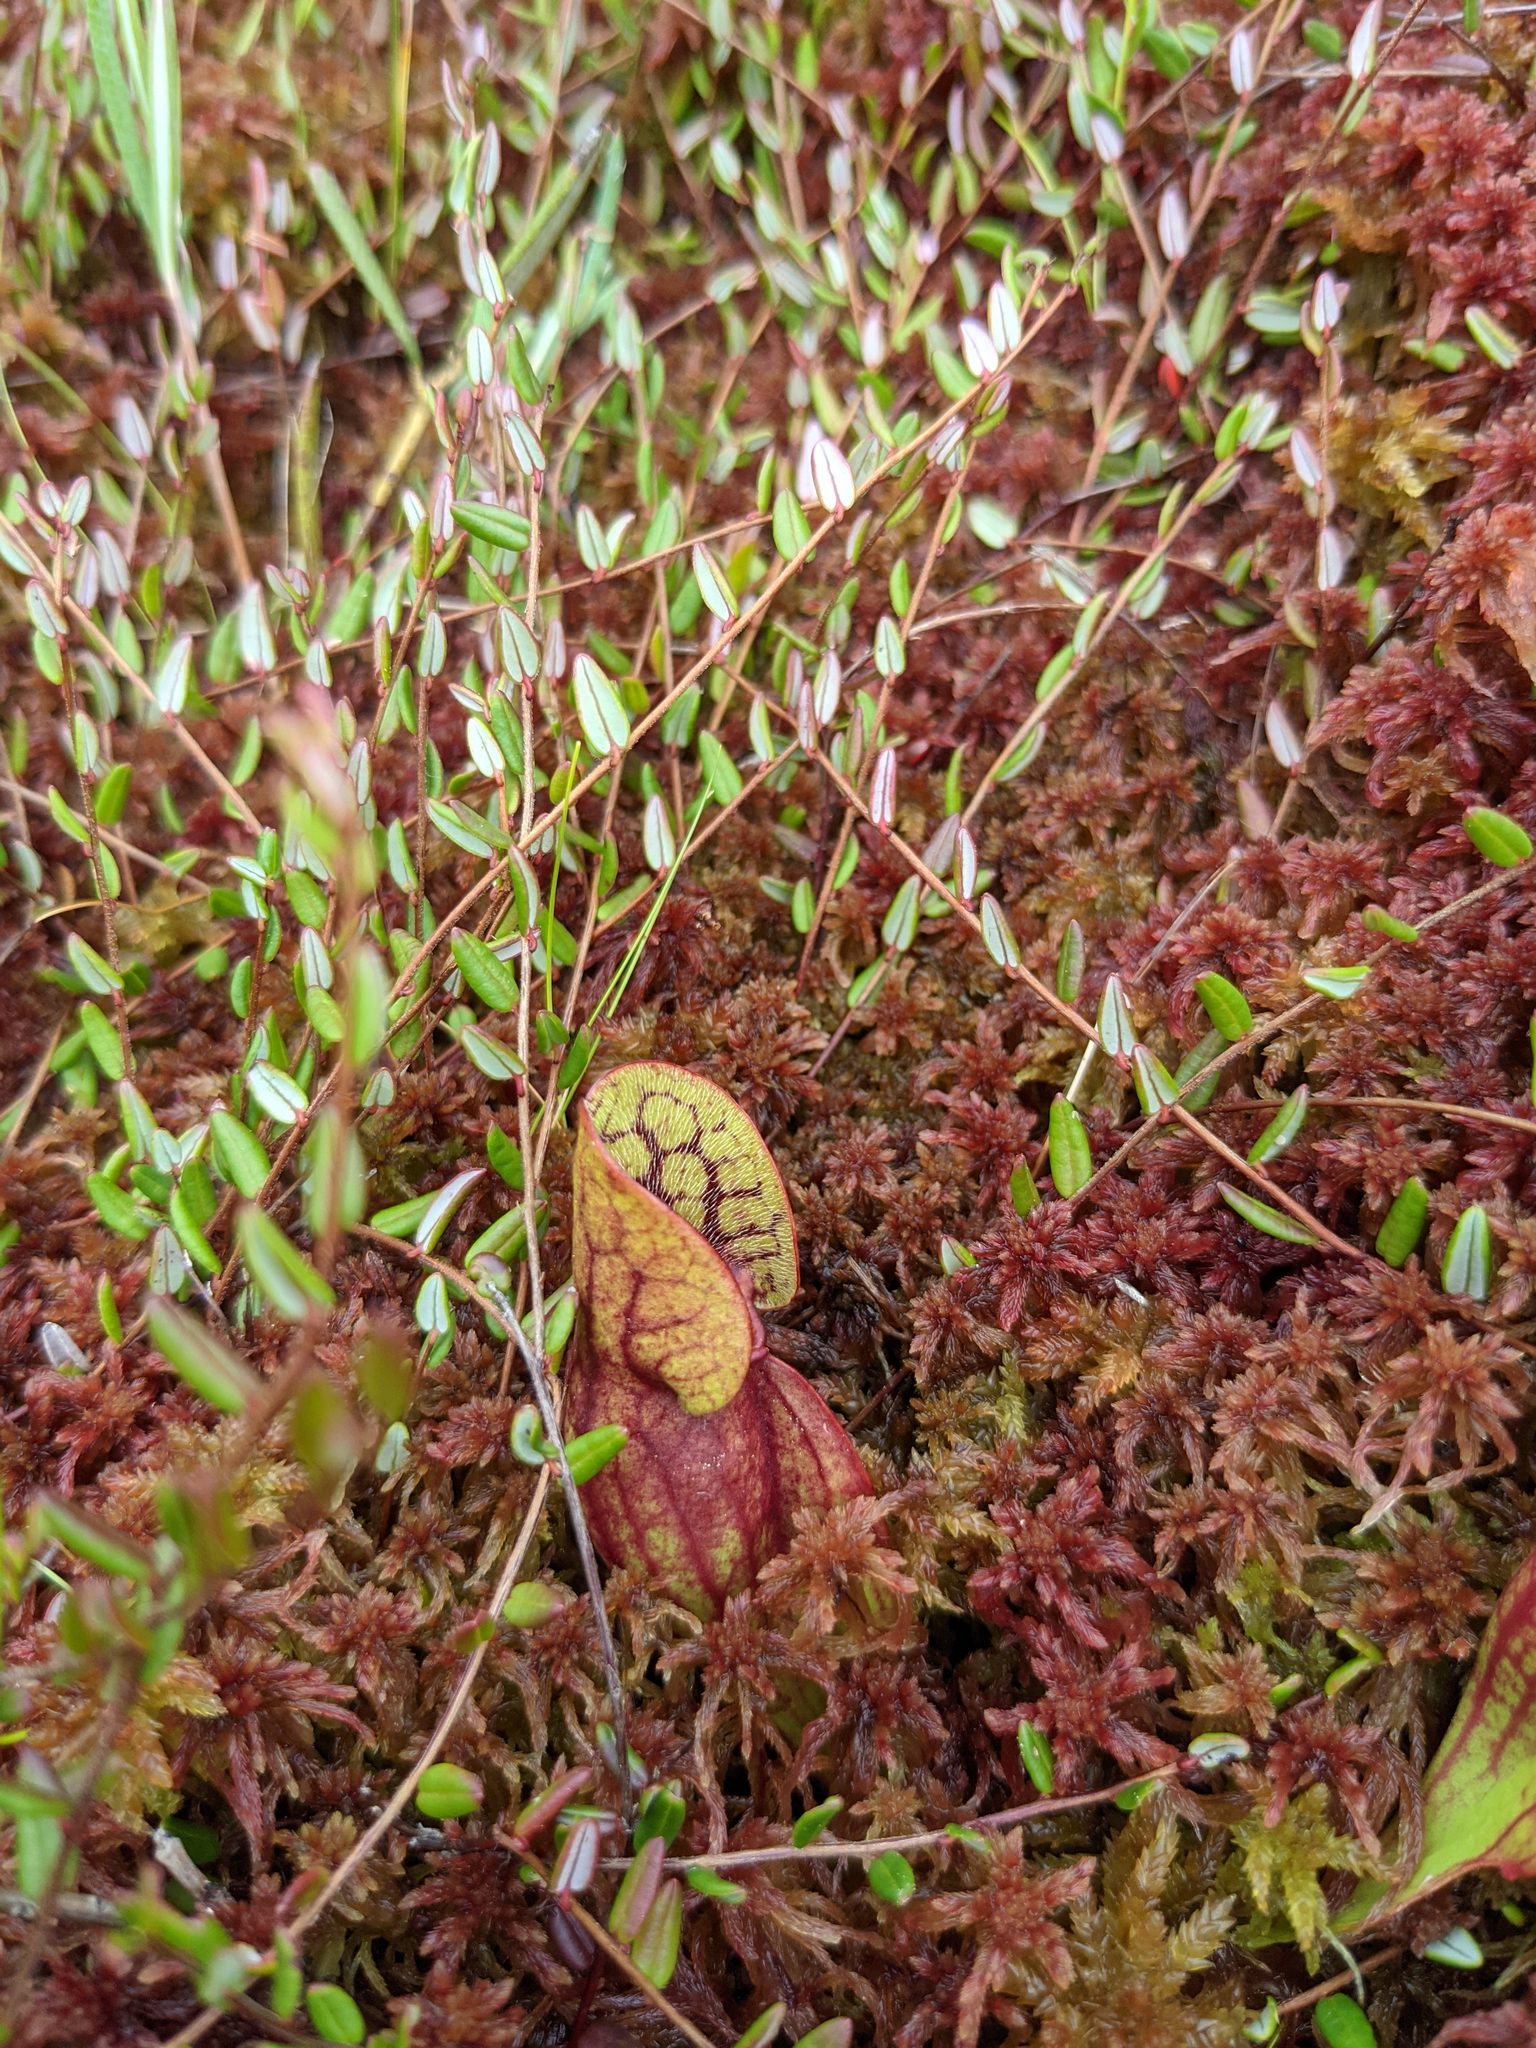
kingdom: Plantae
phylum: Tracheophyta
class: Magnoliopsida
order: Ericales
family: Sarraceniaceae
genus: Sarracenia
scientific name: Sarracenia purpurea
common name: Pitcherplant
